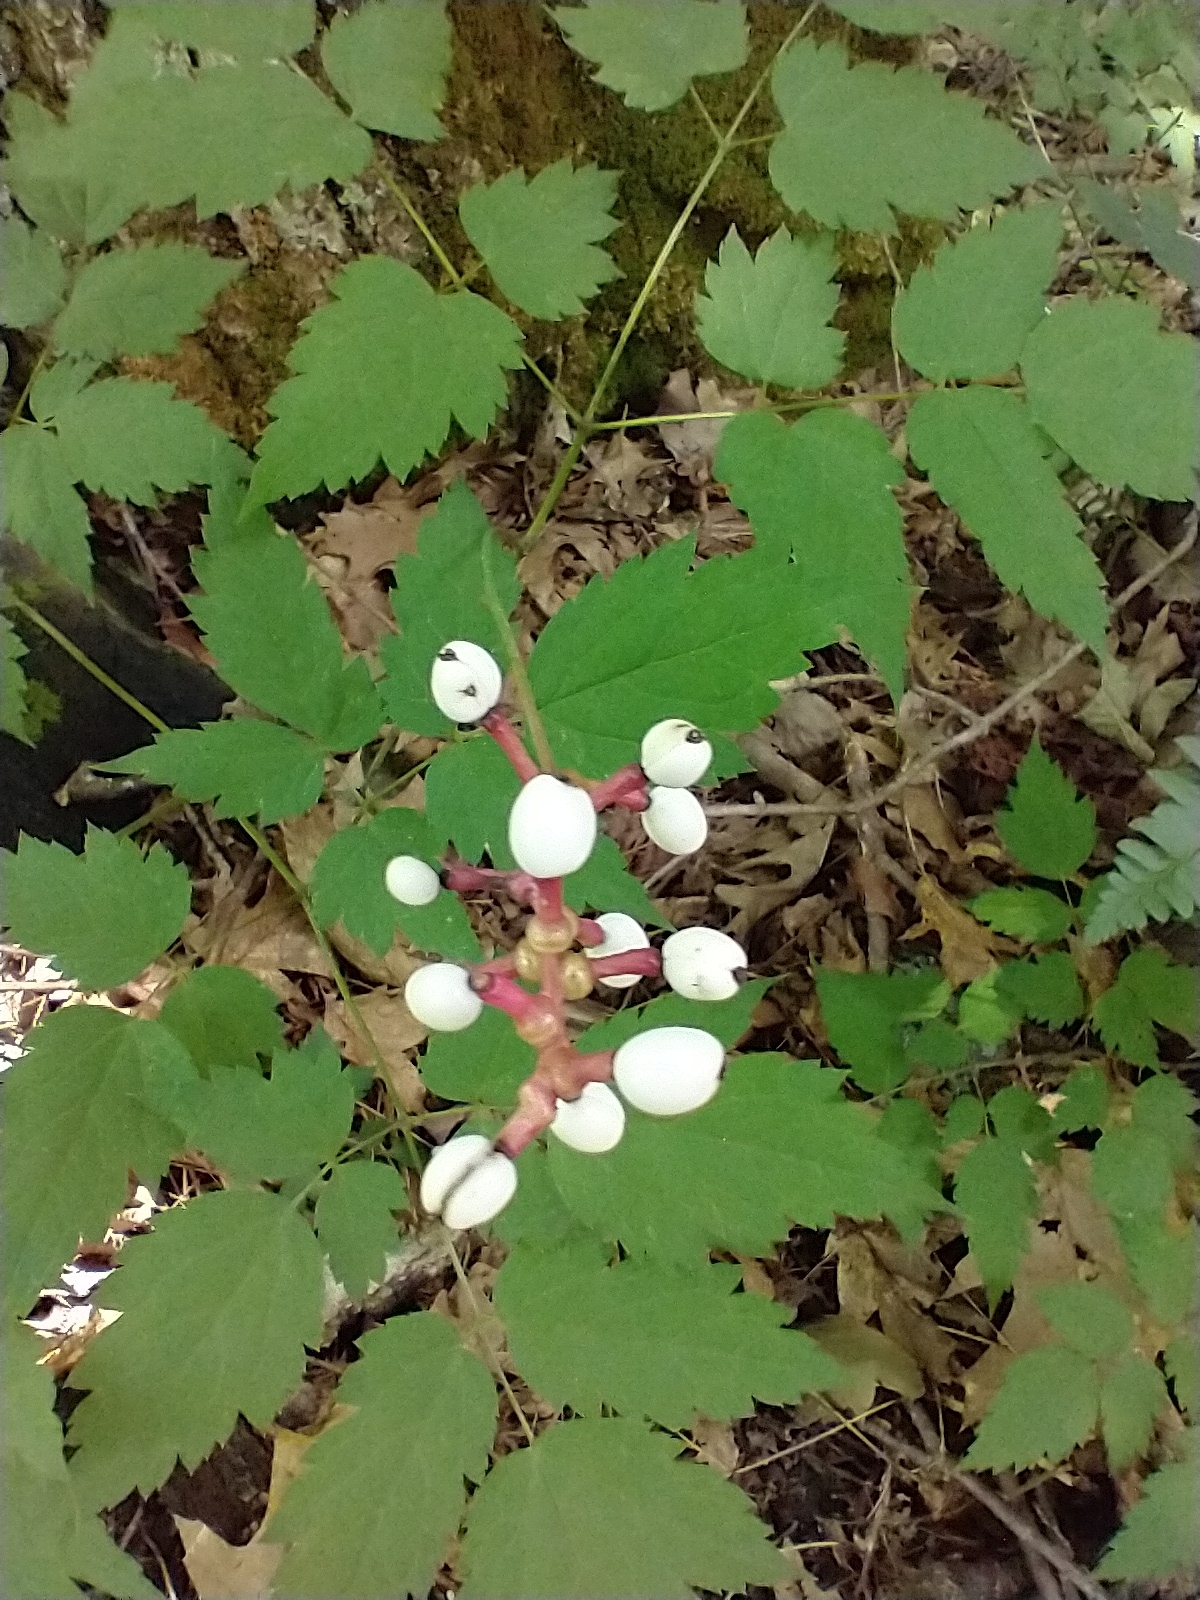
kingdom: Plantae
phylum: Tracheophyta
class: Magnoliopsida
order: Ranunculales
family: Ranunculaceae
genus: Actaea
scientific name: Actaea pachypoda
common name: Doll's-eyes
